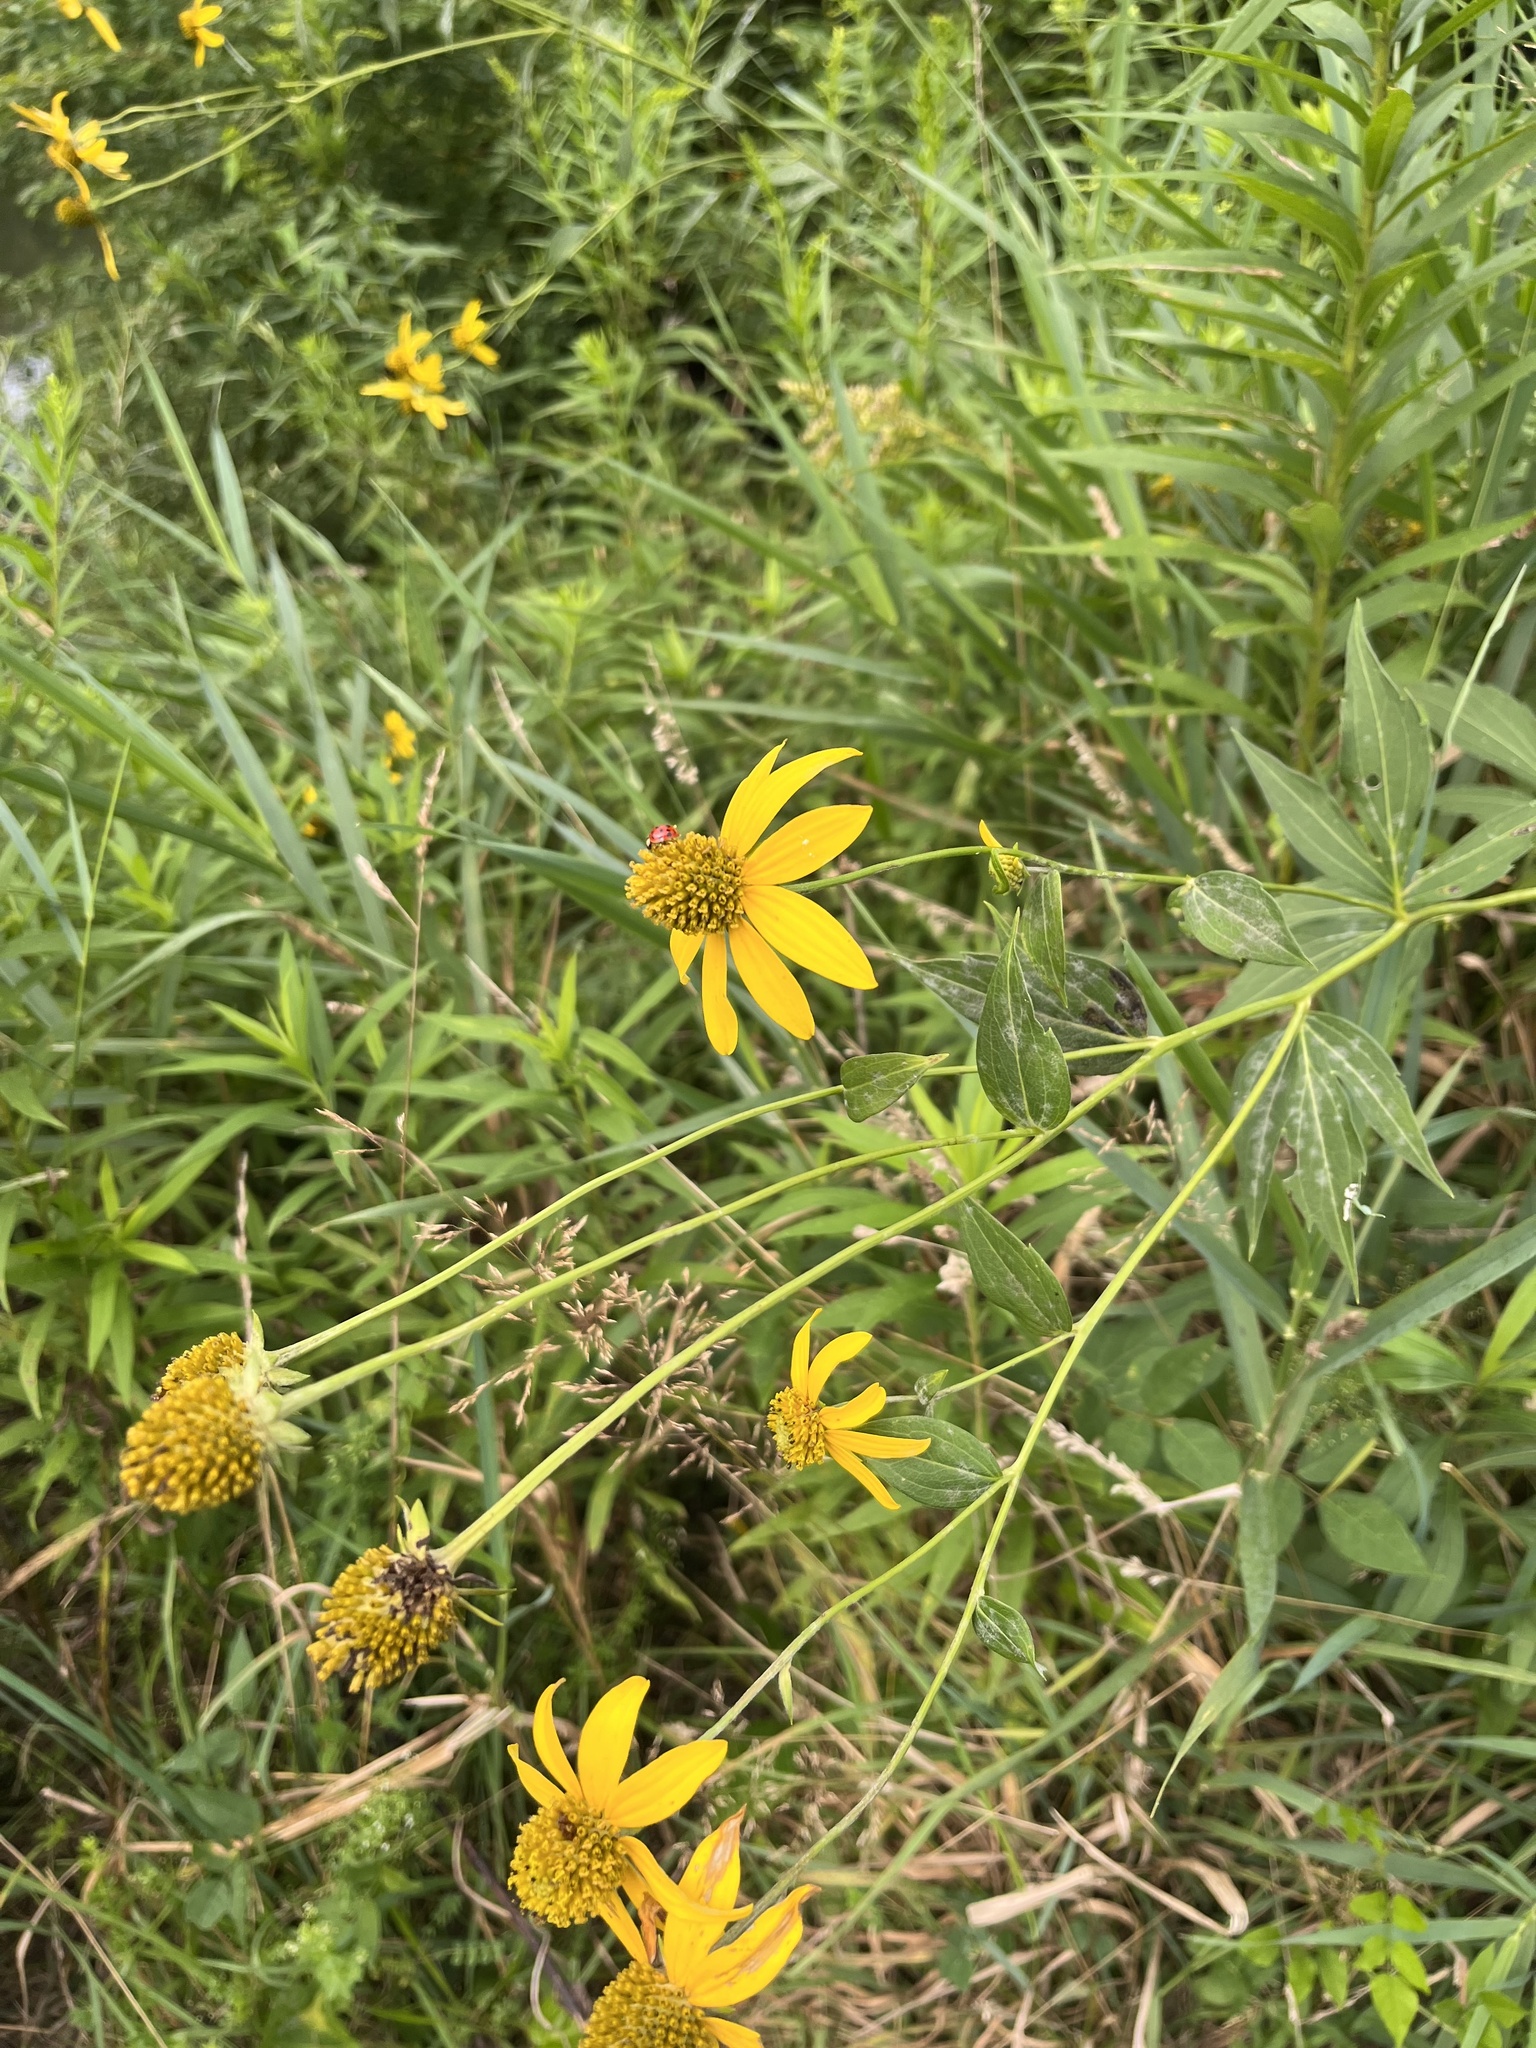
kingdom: Plantae
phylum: Tracheophyta
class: Magnoliopsida
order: Asterales
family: Asteraceae
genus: Rudbeckia
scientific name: Rudbeckia laciniata
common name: Coneflower
